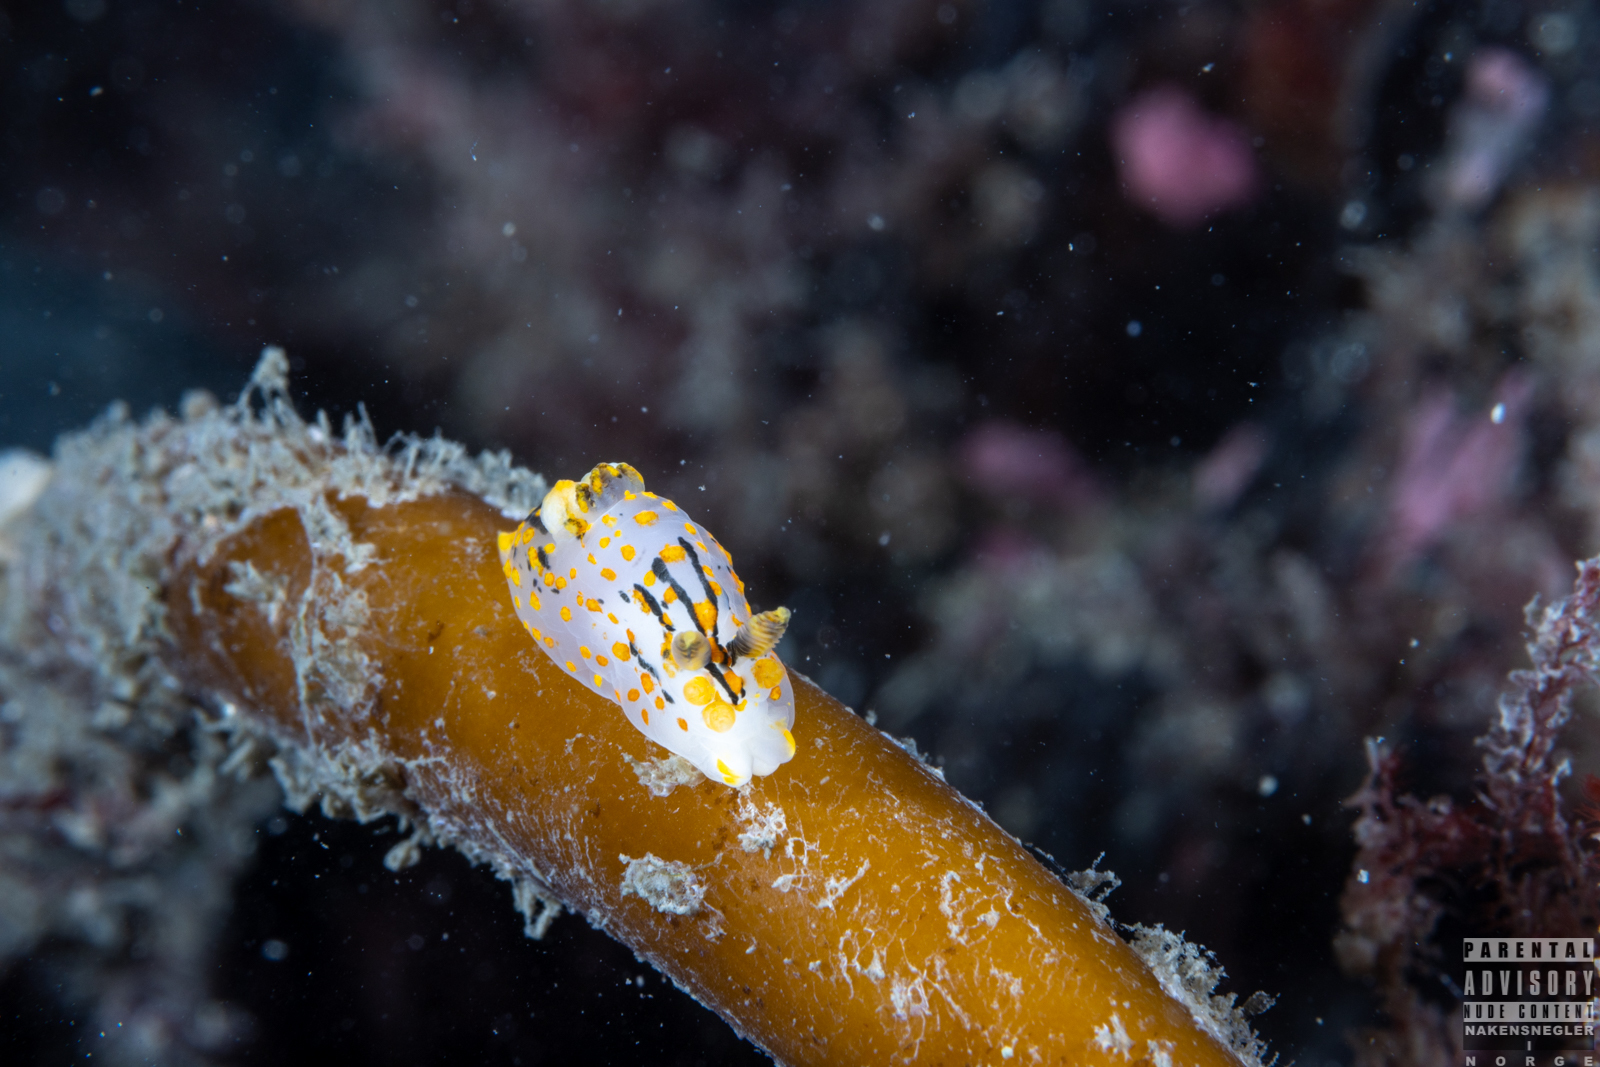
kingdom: Animalia
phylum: Mollusca
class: Gastropoda
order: Nudibranchia
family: Polyceridae
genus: Polycera
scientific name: Polycera quadrilineata
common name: Four-striped polycera
